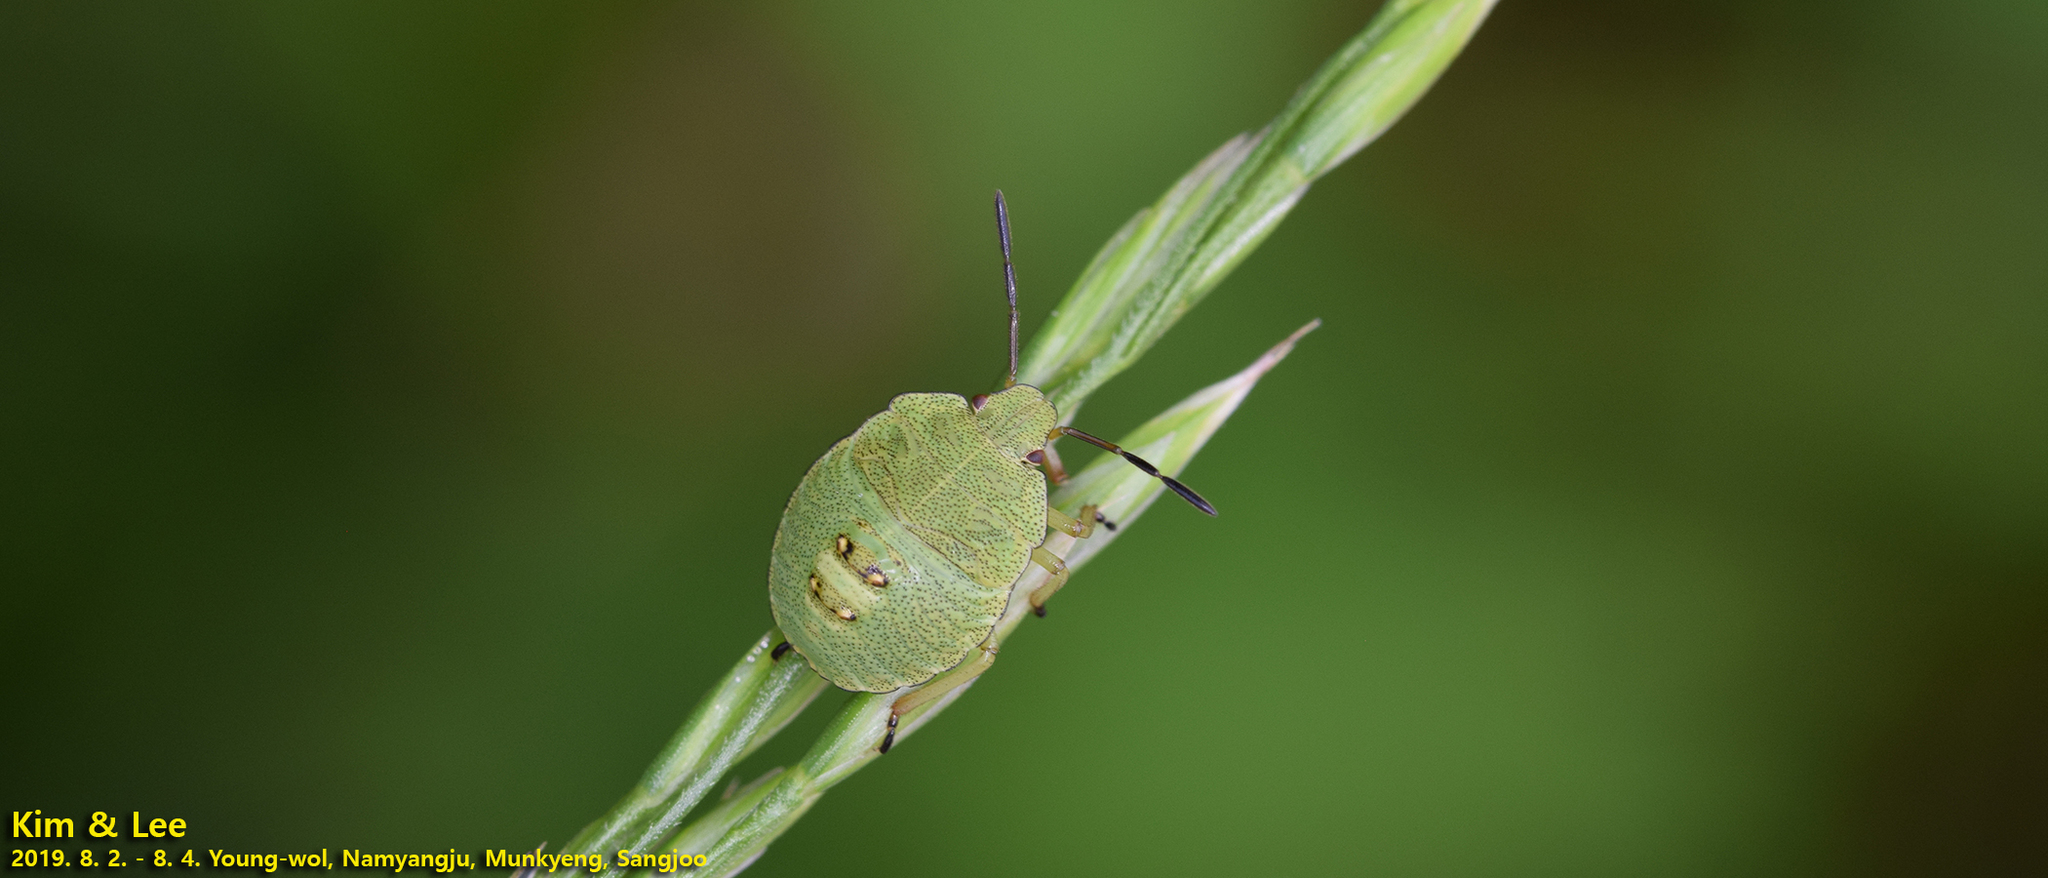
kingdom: Animalia
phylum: Arthropoda
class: Insecta
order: Hemiptera
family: Pentatomidae
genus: Palomena
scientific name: Palomena
